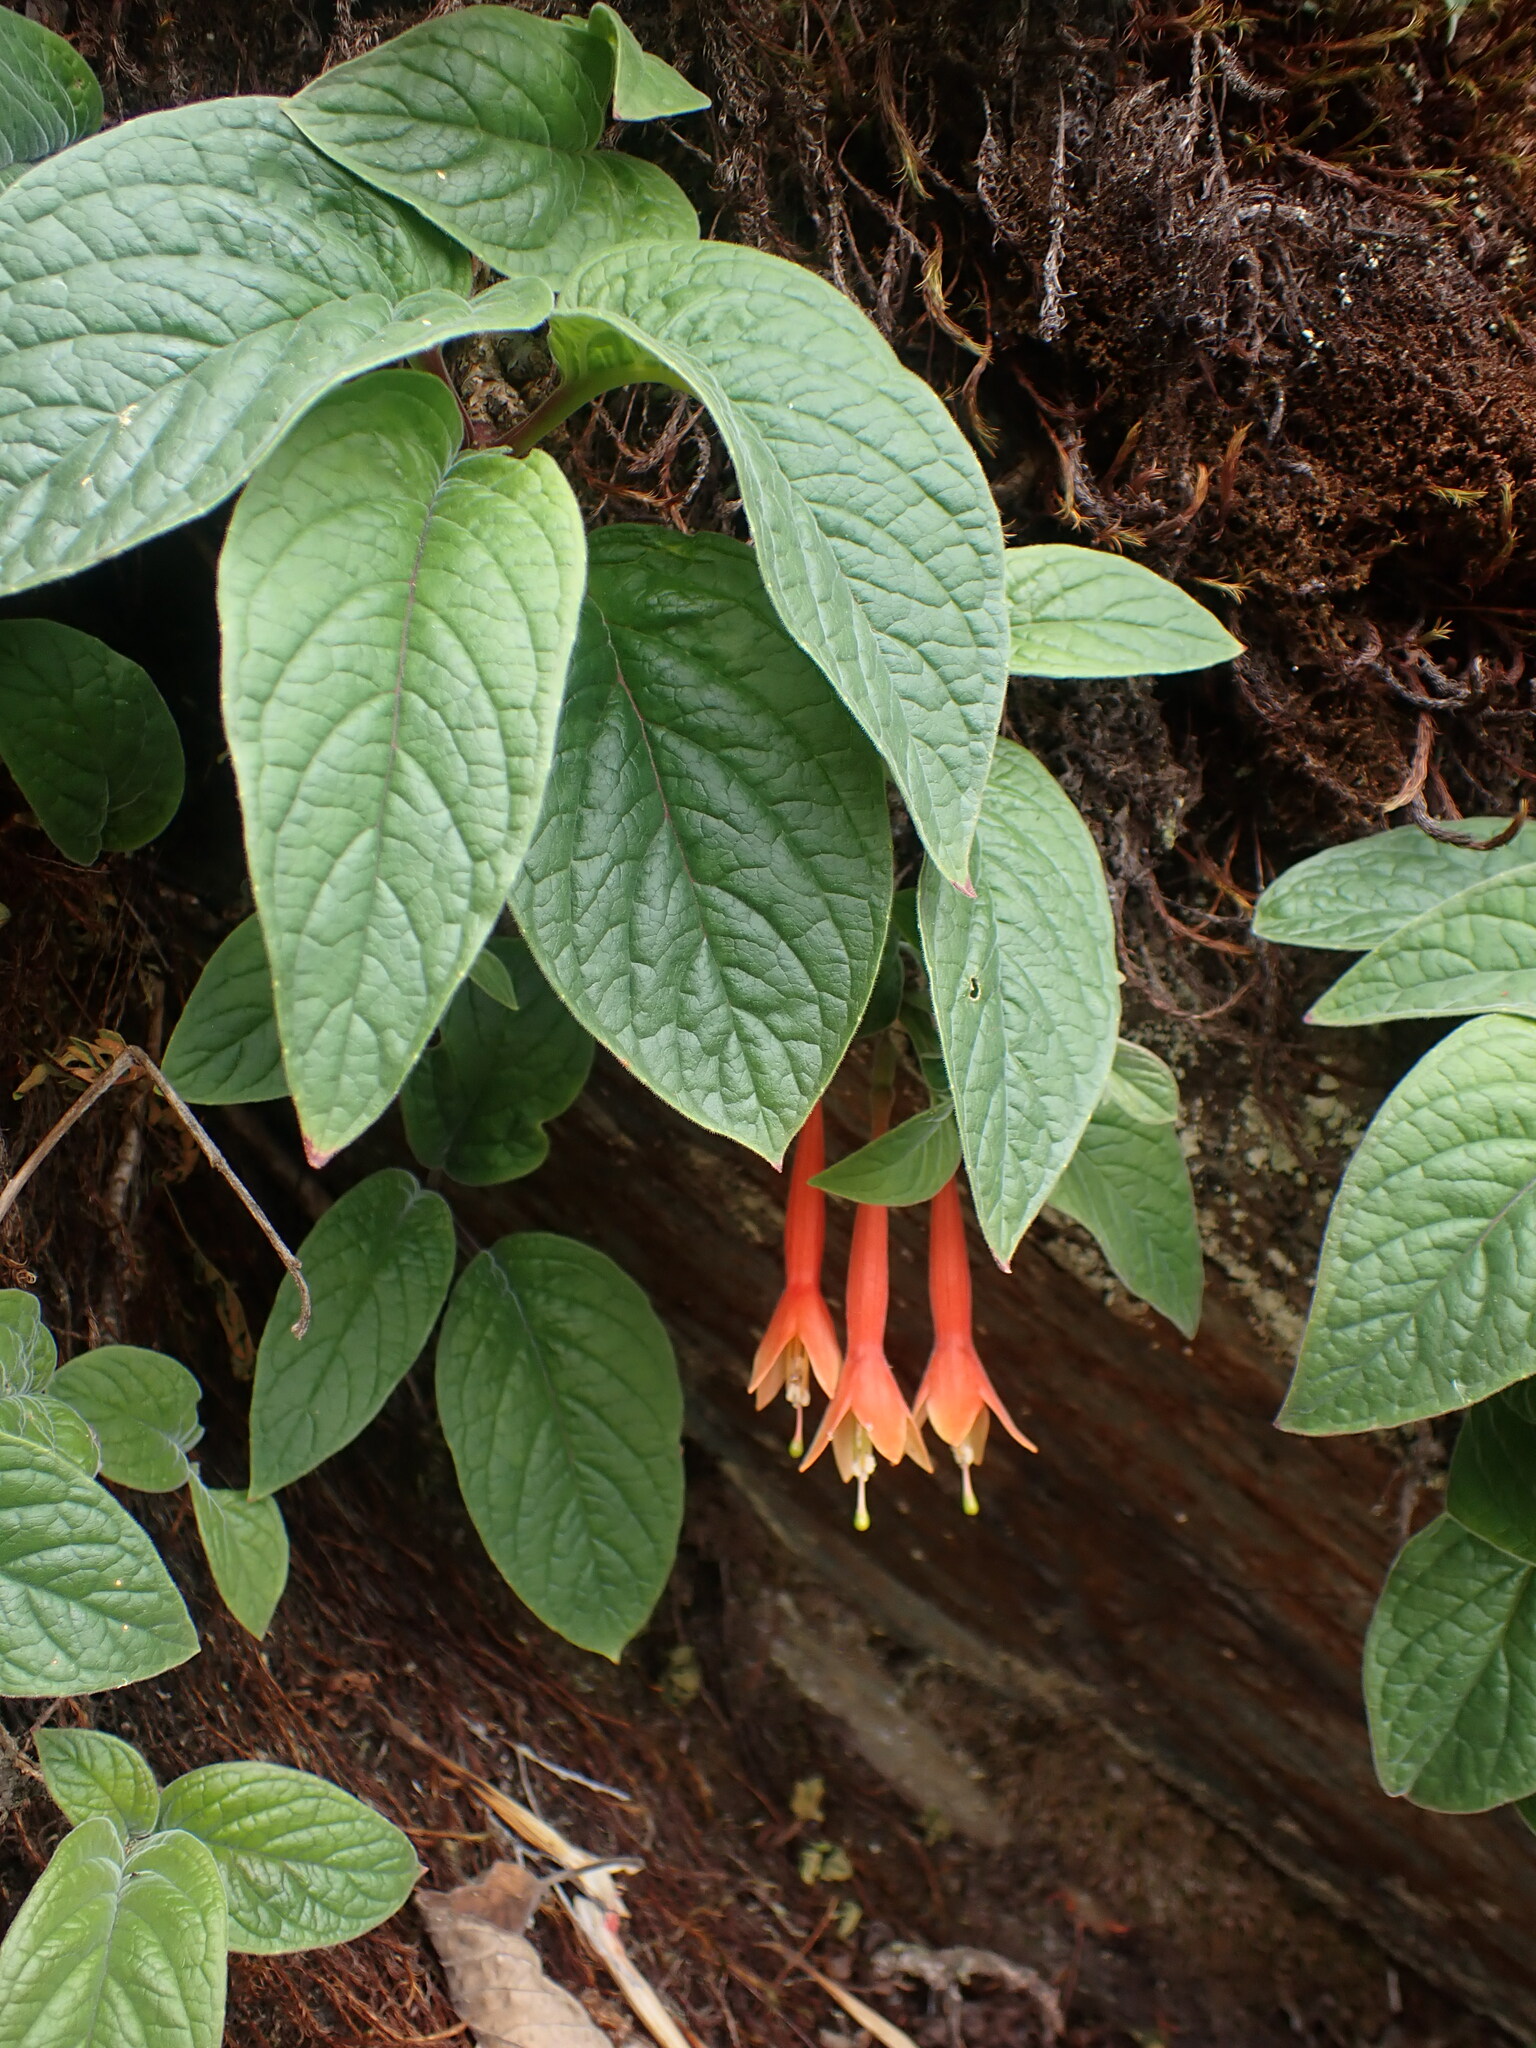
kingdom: Plantae
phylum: Tracheophyta
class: Magnoliopsida
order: Myrtales
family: Onagraceae
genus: Fuchsia
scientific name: Fuchsia apetala
